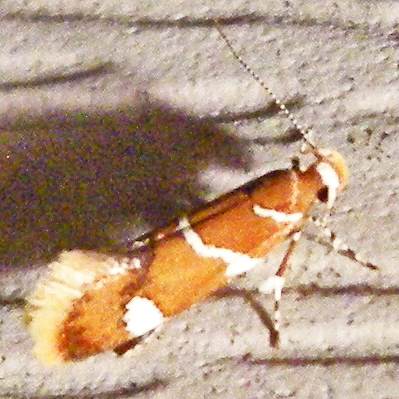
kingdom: Animalia
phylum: Arthropoda
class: Insecta
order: Lepidoptera
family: Oecophoridae
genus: Promalactis
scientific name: Promalactis suzukiella
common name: Moth
